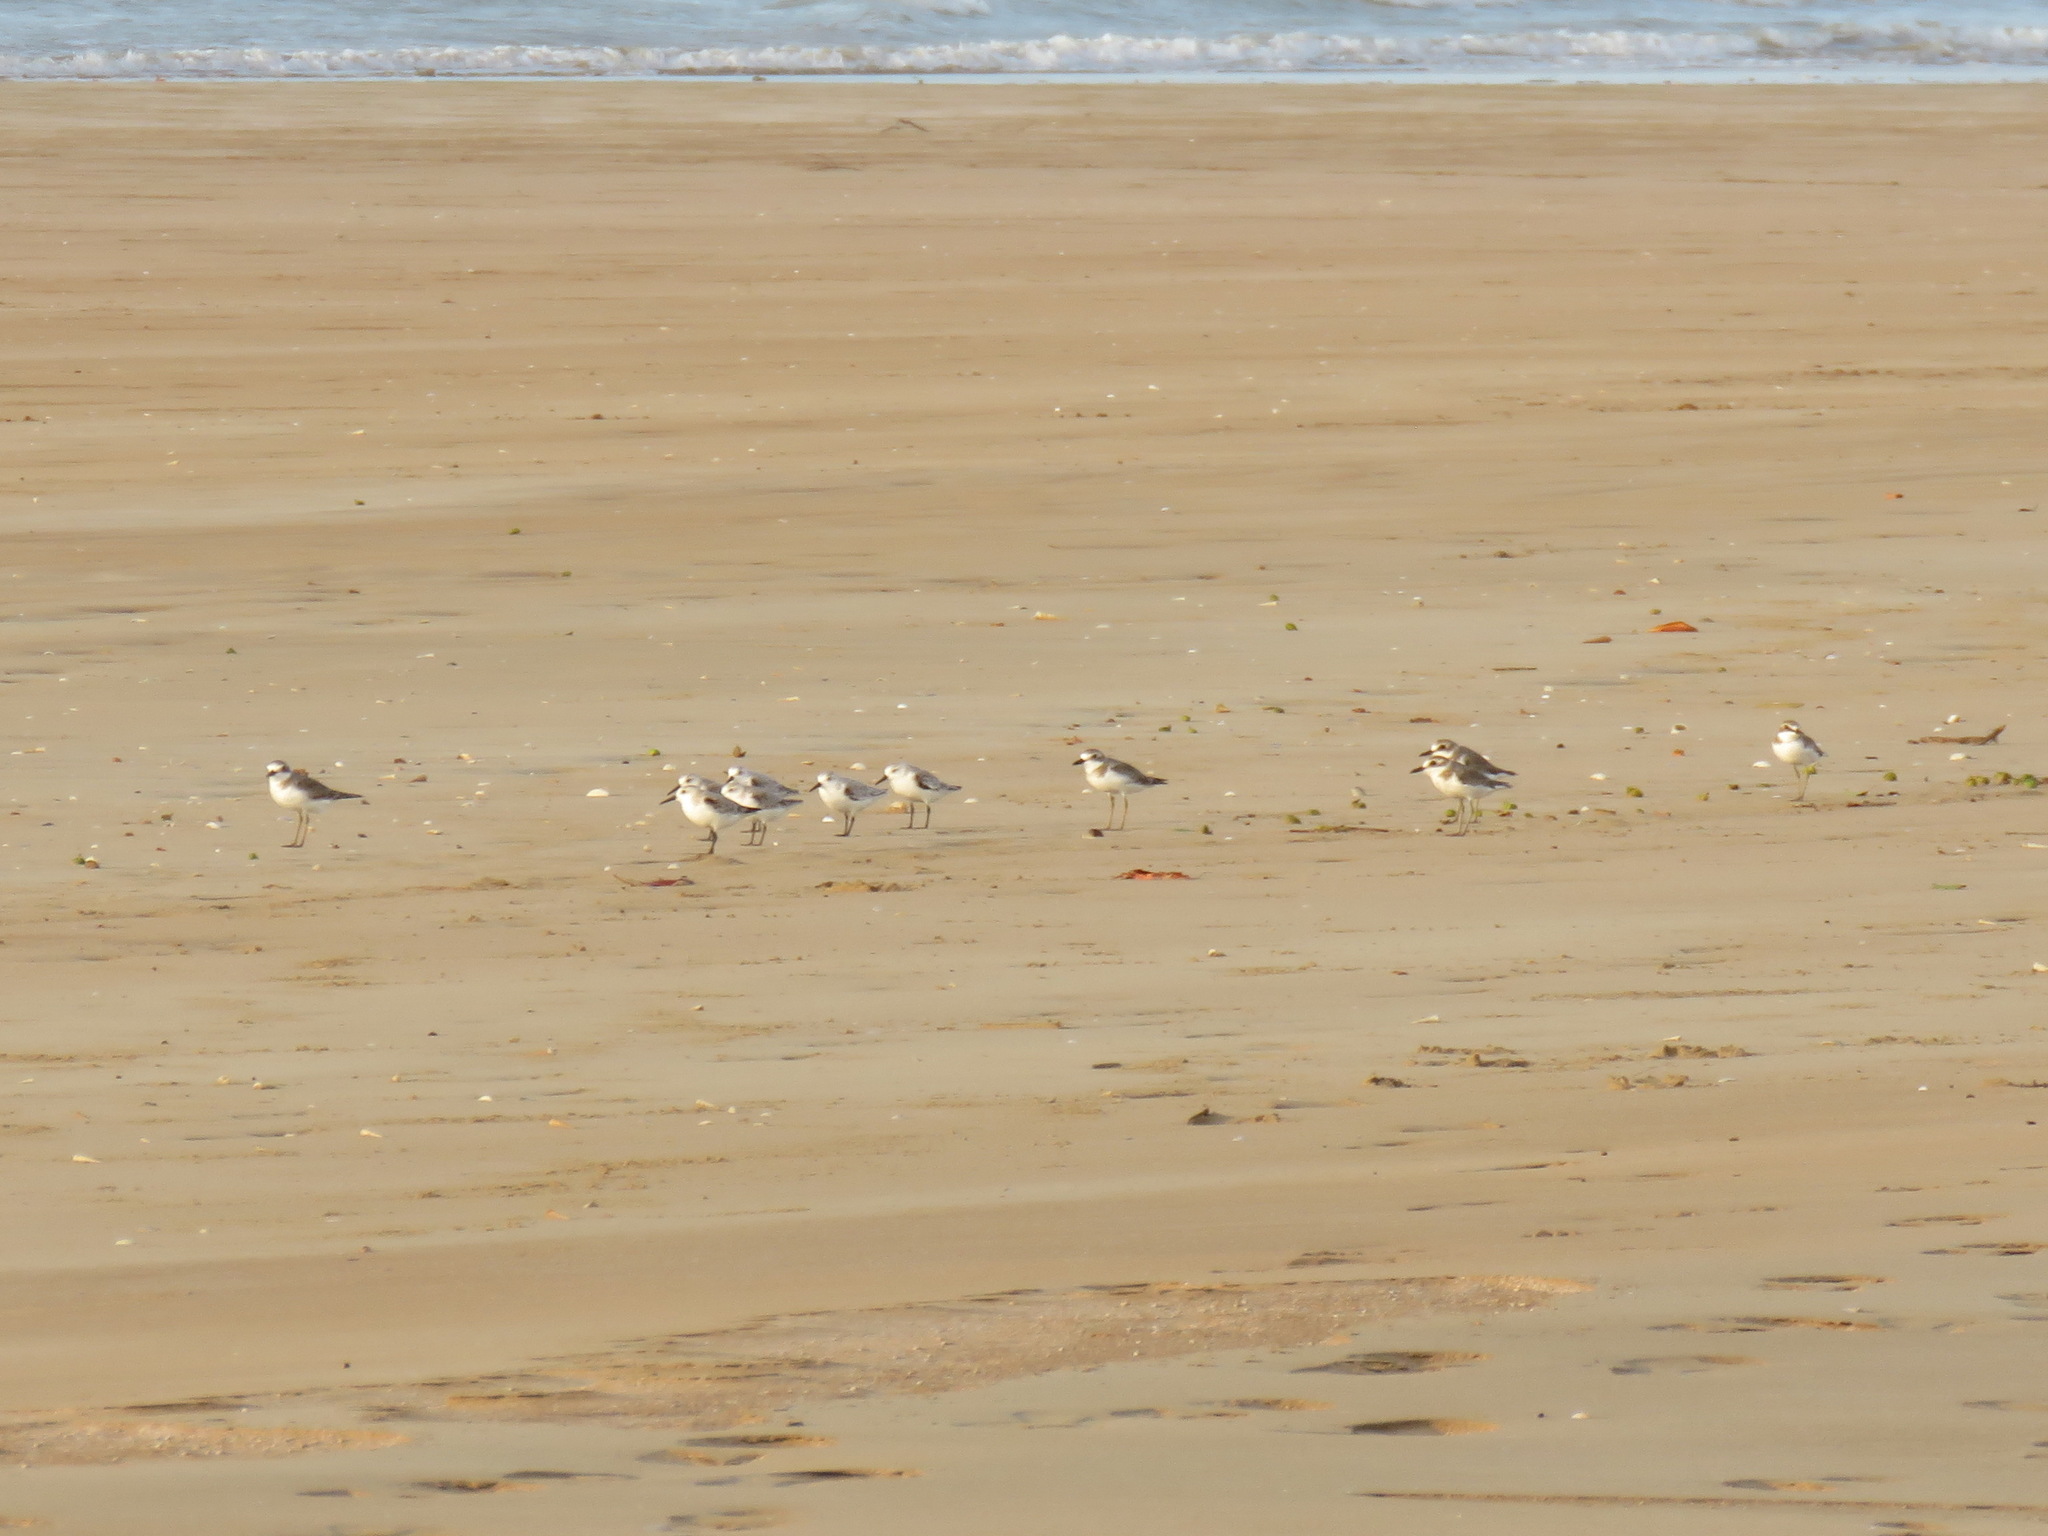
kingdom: Animalia
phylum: Chordata
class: Aves
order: Charadriiformes
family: Charadriidae
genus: Charadrius
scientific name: Charadrius leschenaultii
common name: Greater sand plover
